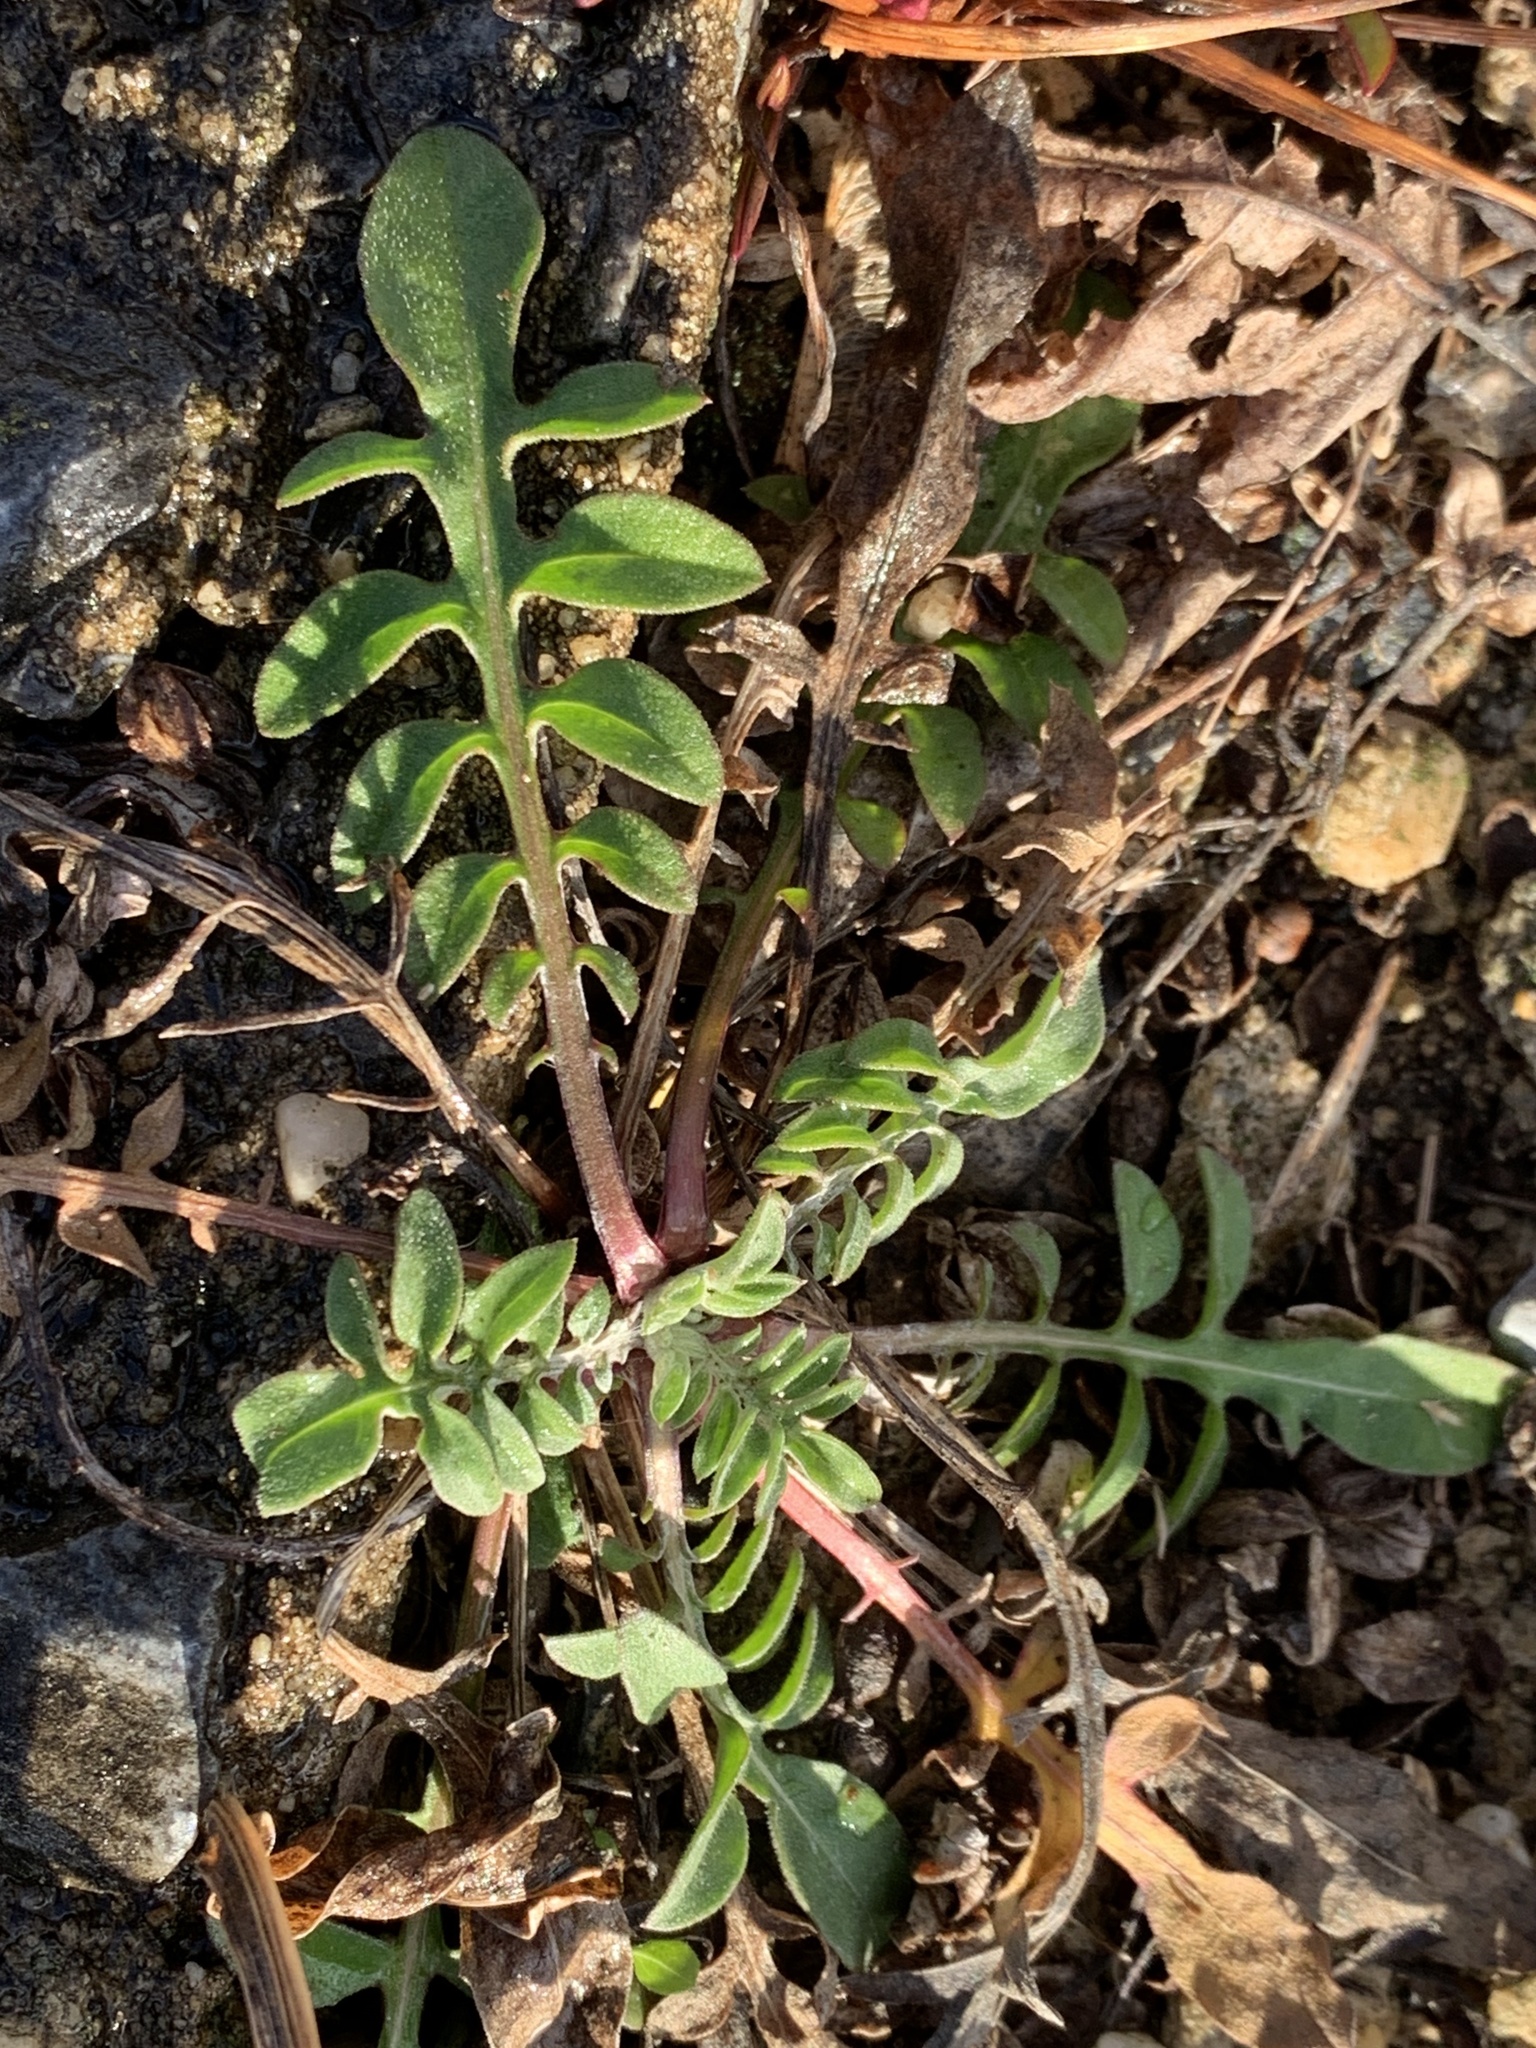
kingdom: Plantae
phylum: Tracheophyta
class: Magnoliopsida
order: Asterales
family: Asteraceae
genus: Centaurea
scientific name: Centaurea stoebe
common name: Spotted knapweed
